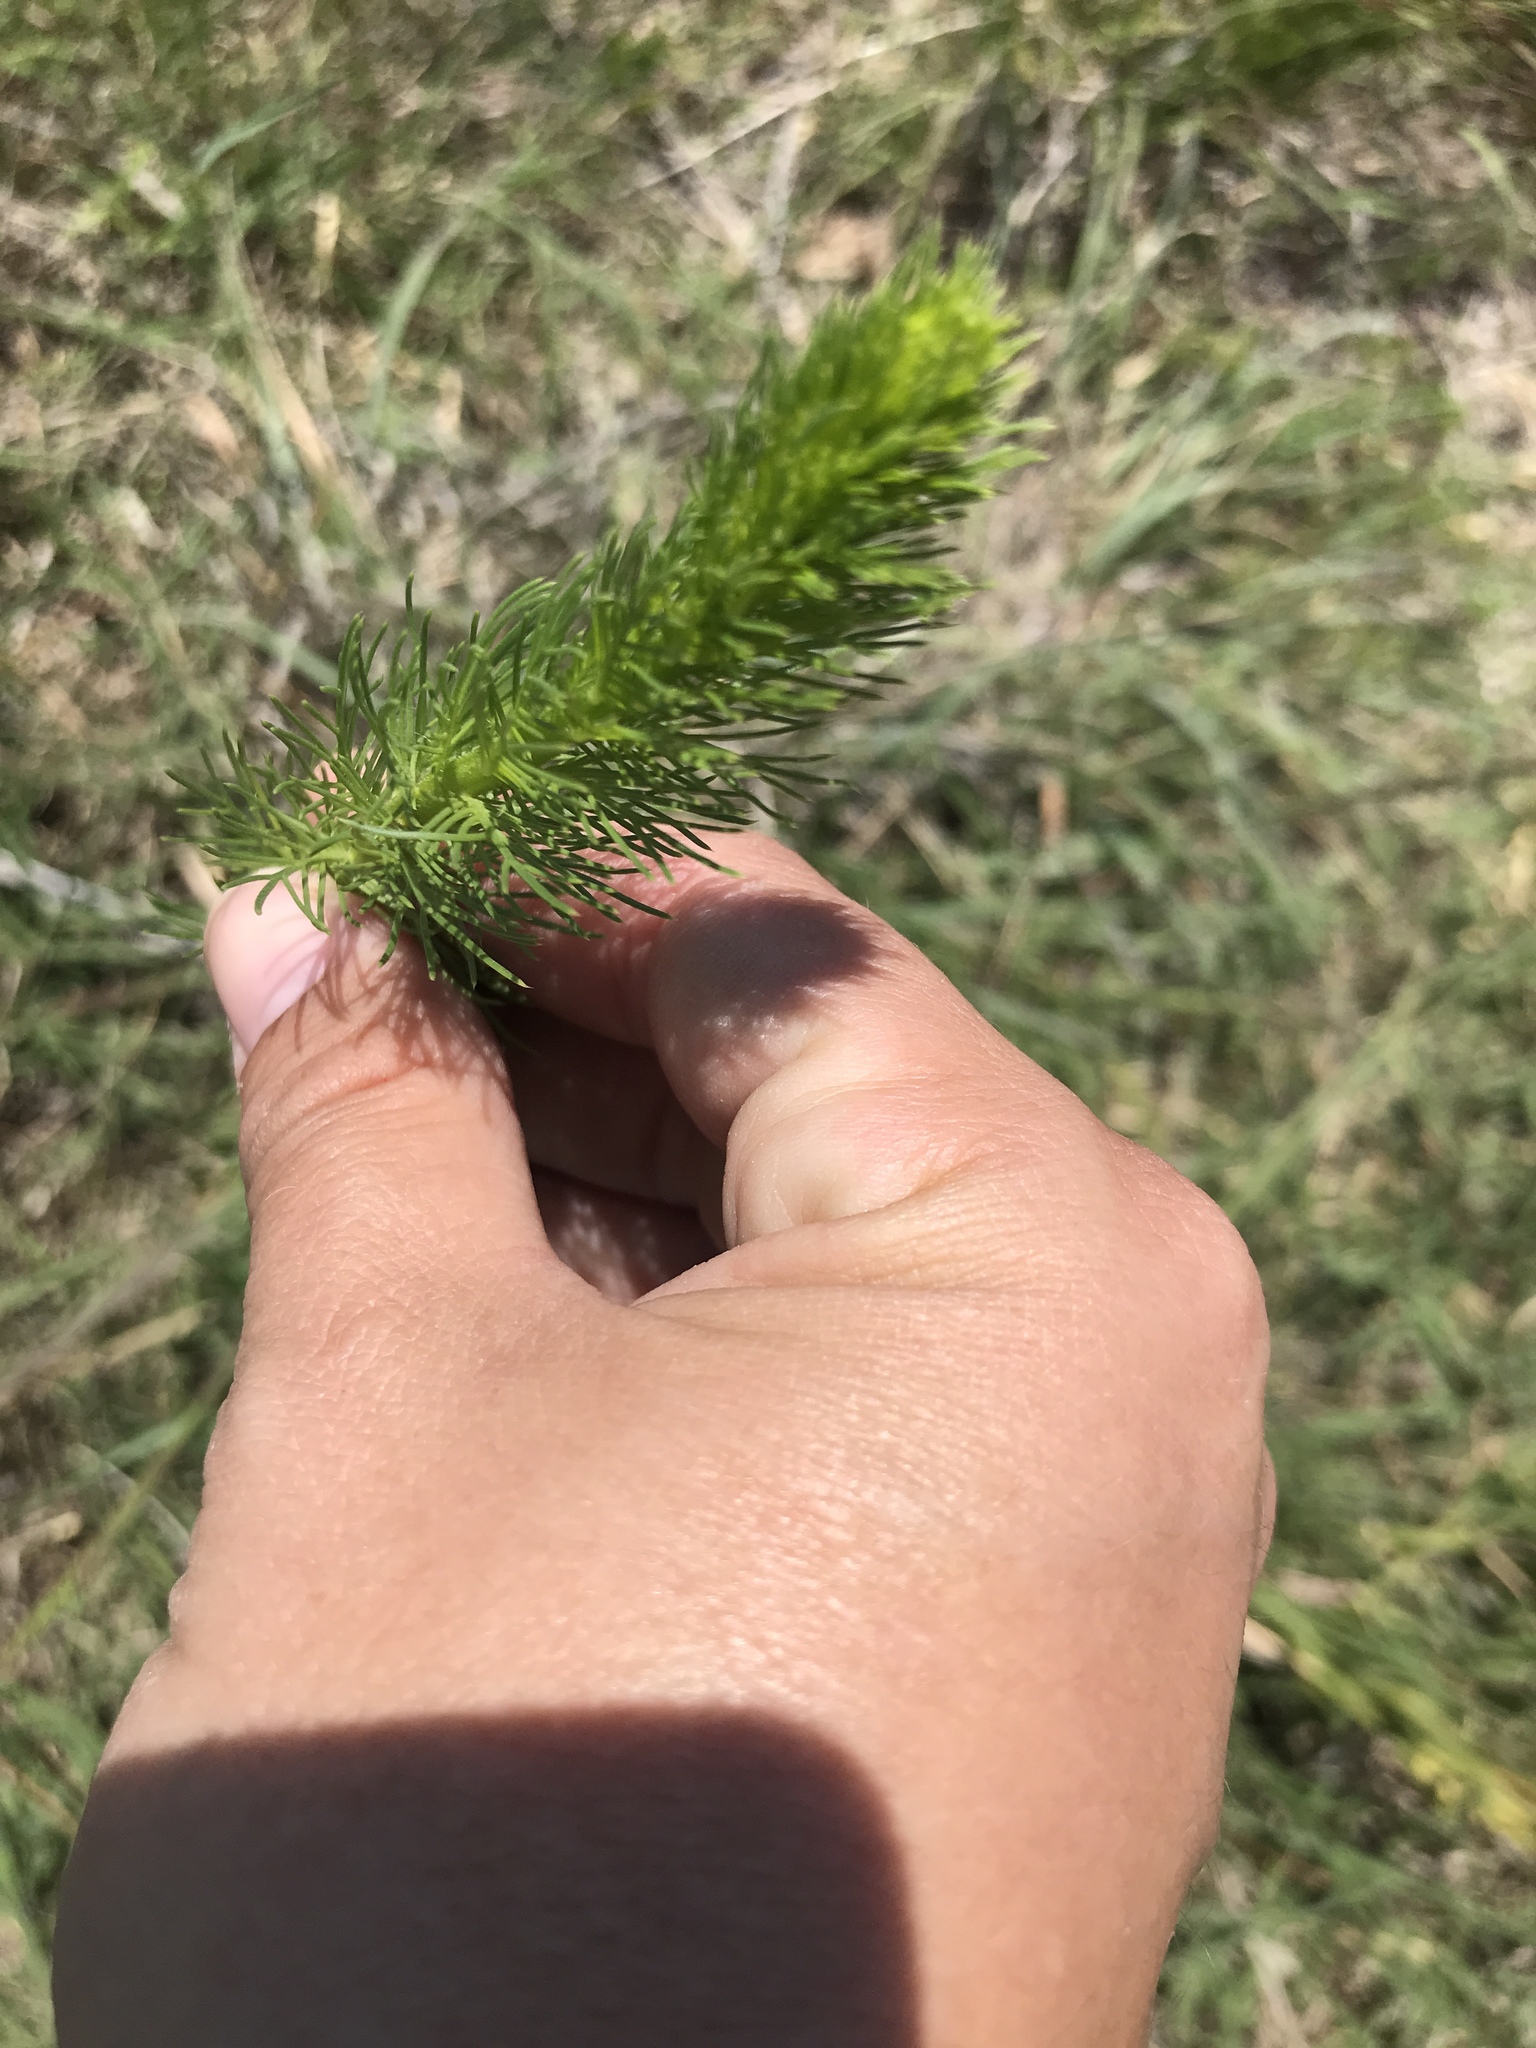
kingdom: Plantae
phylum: Tracheophyta
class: Magnoliopsida
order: Ericales
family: Polemoniaceae
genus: Ipomopsis
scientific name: Ipomopsis rubra
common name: Skyrocket
